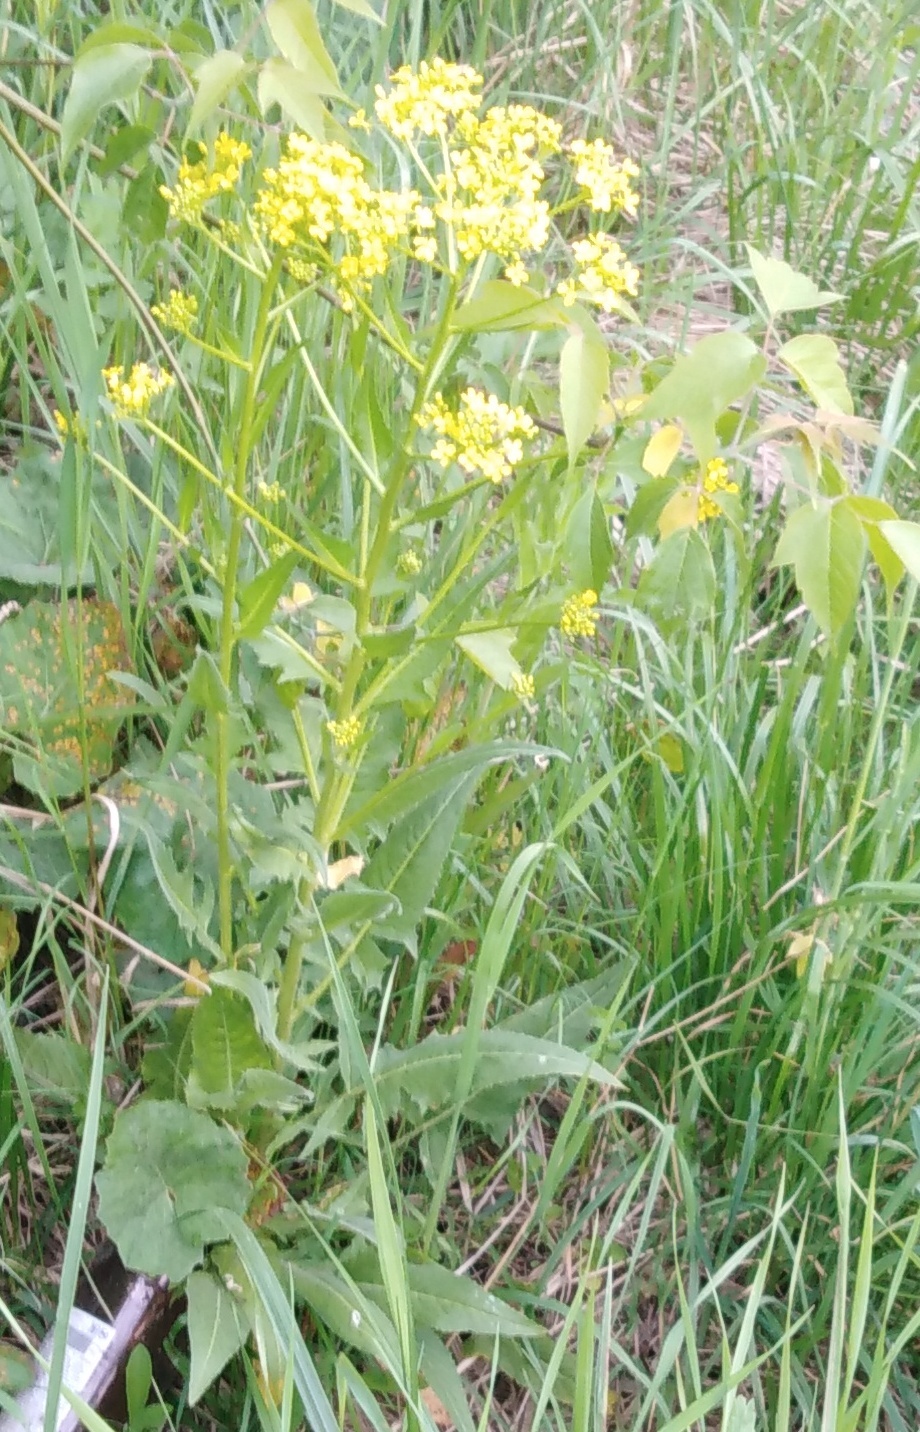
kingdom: Plantae
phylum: Tracheophyta
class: Magnoliopsida
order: Brassicales
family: Brassicaceae
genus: Bunias
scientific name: Bunias orientalis
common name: Warty-cabbage
